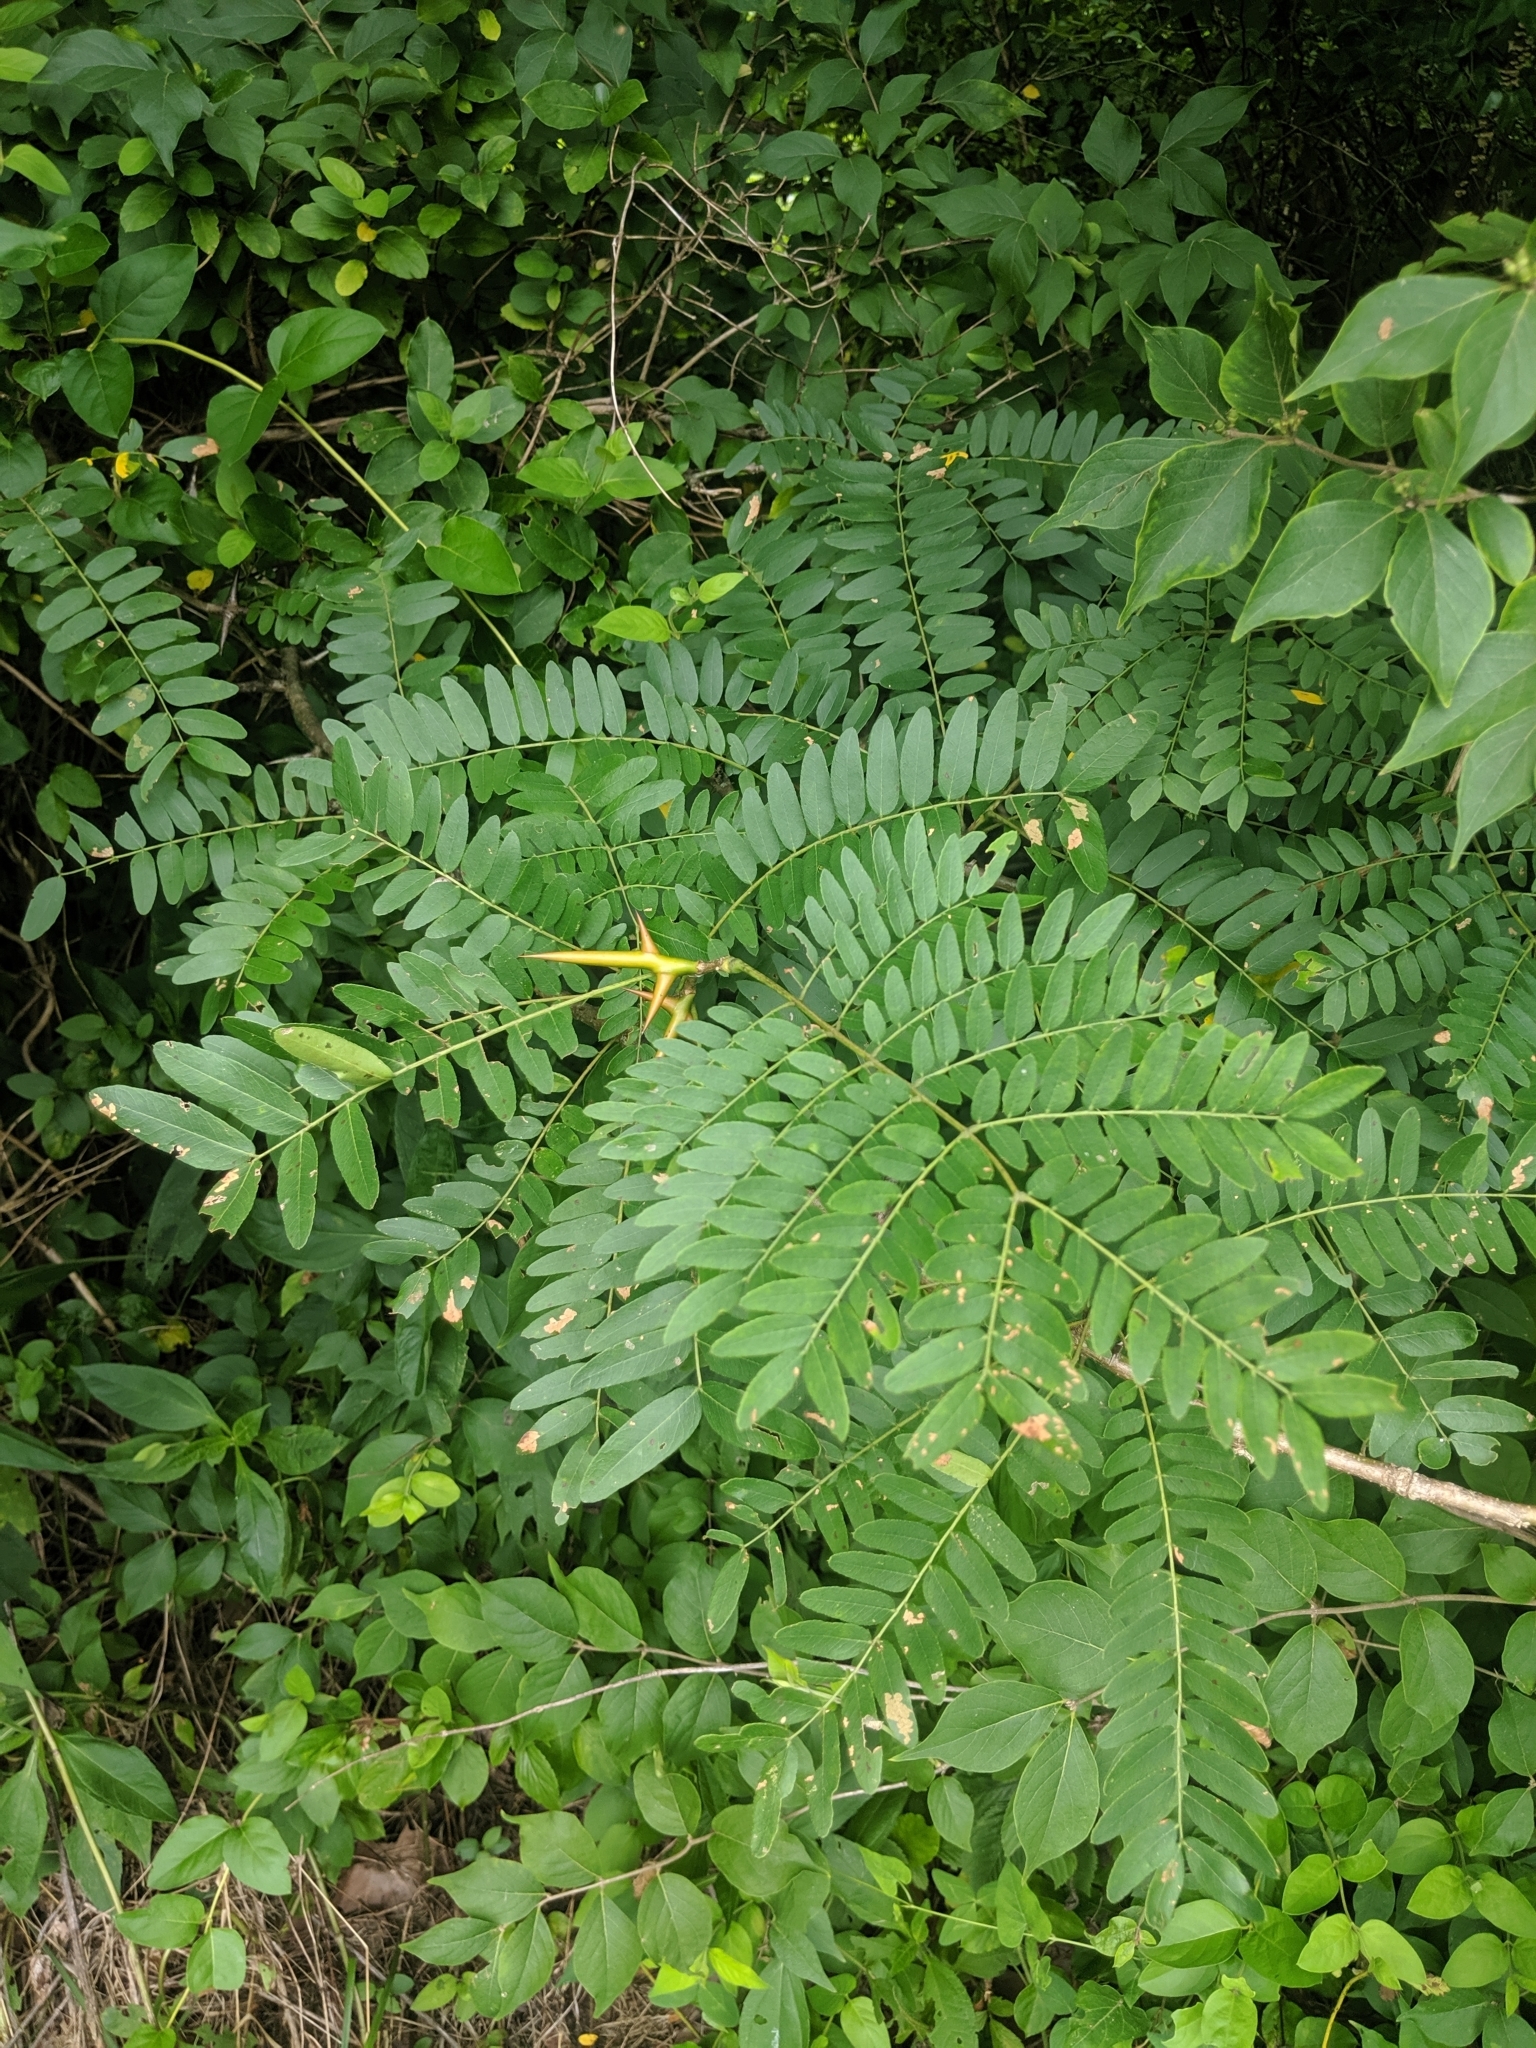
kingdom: Plantae
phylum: Tracheophyta
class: Magnoliopsida
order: Fabales
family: Fabaceae
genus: Gleditsia
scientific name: Gleditsia triacanthos
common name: Common honeylocust
